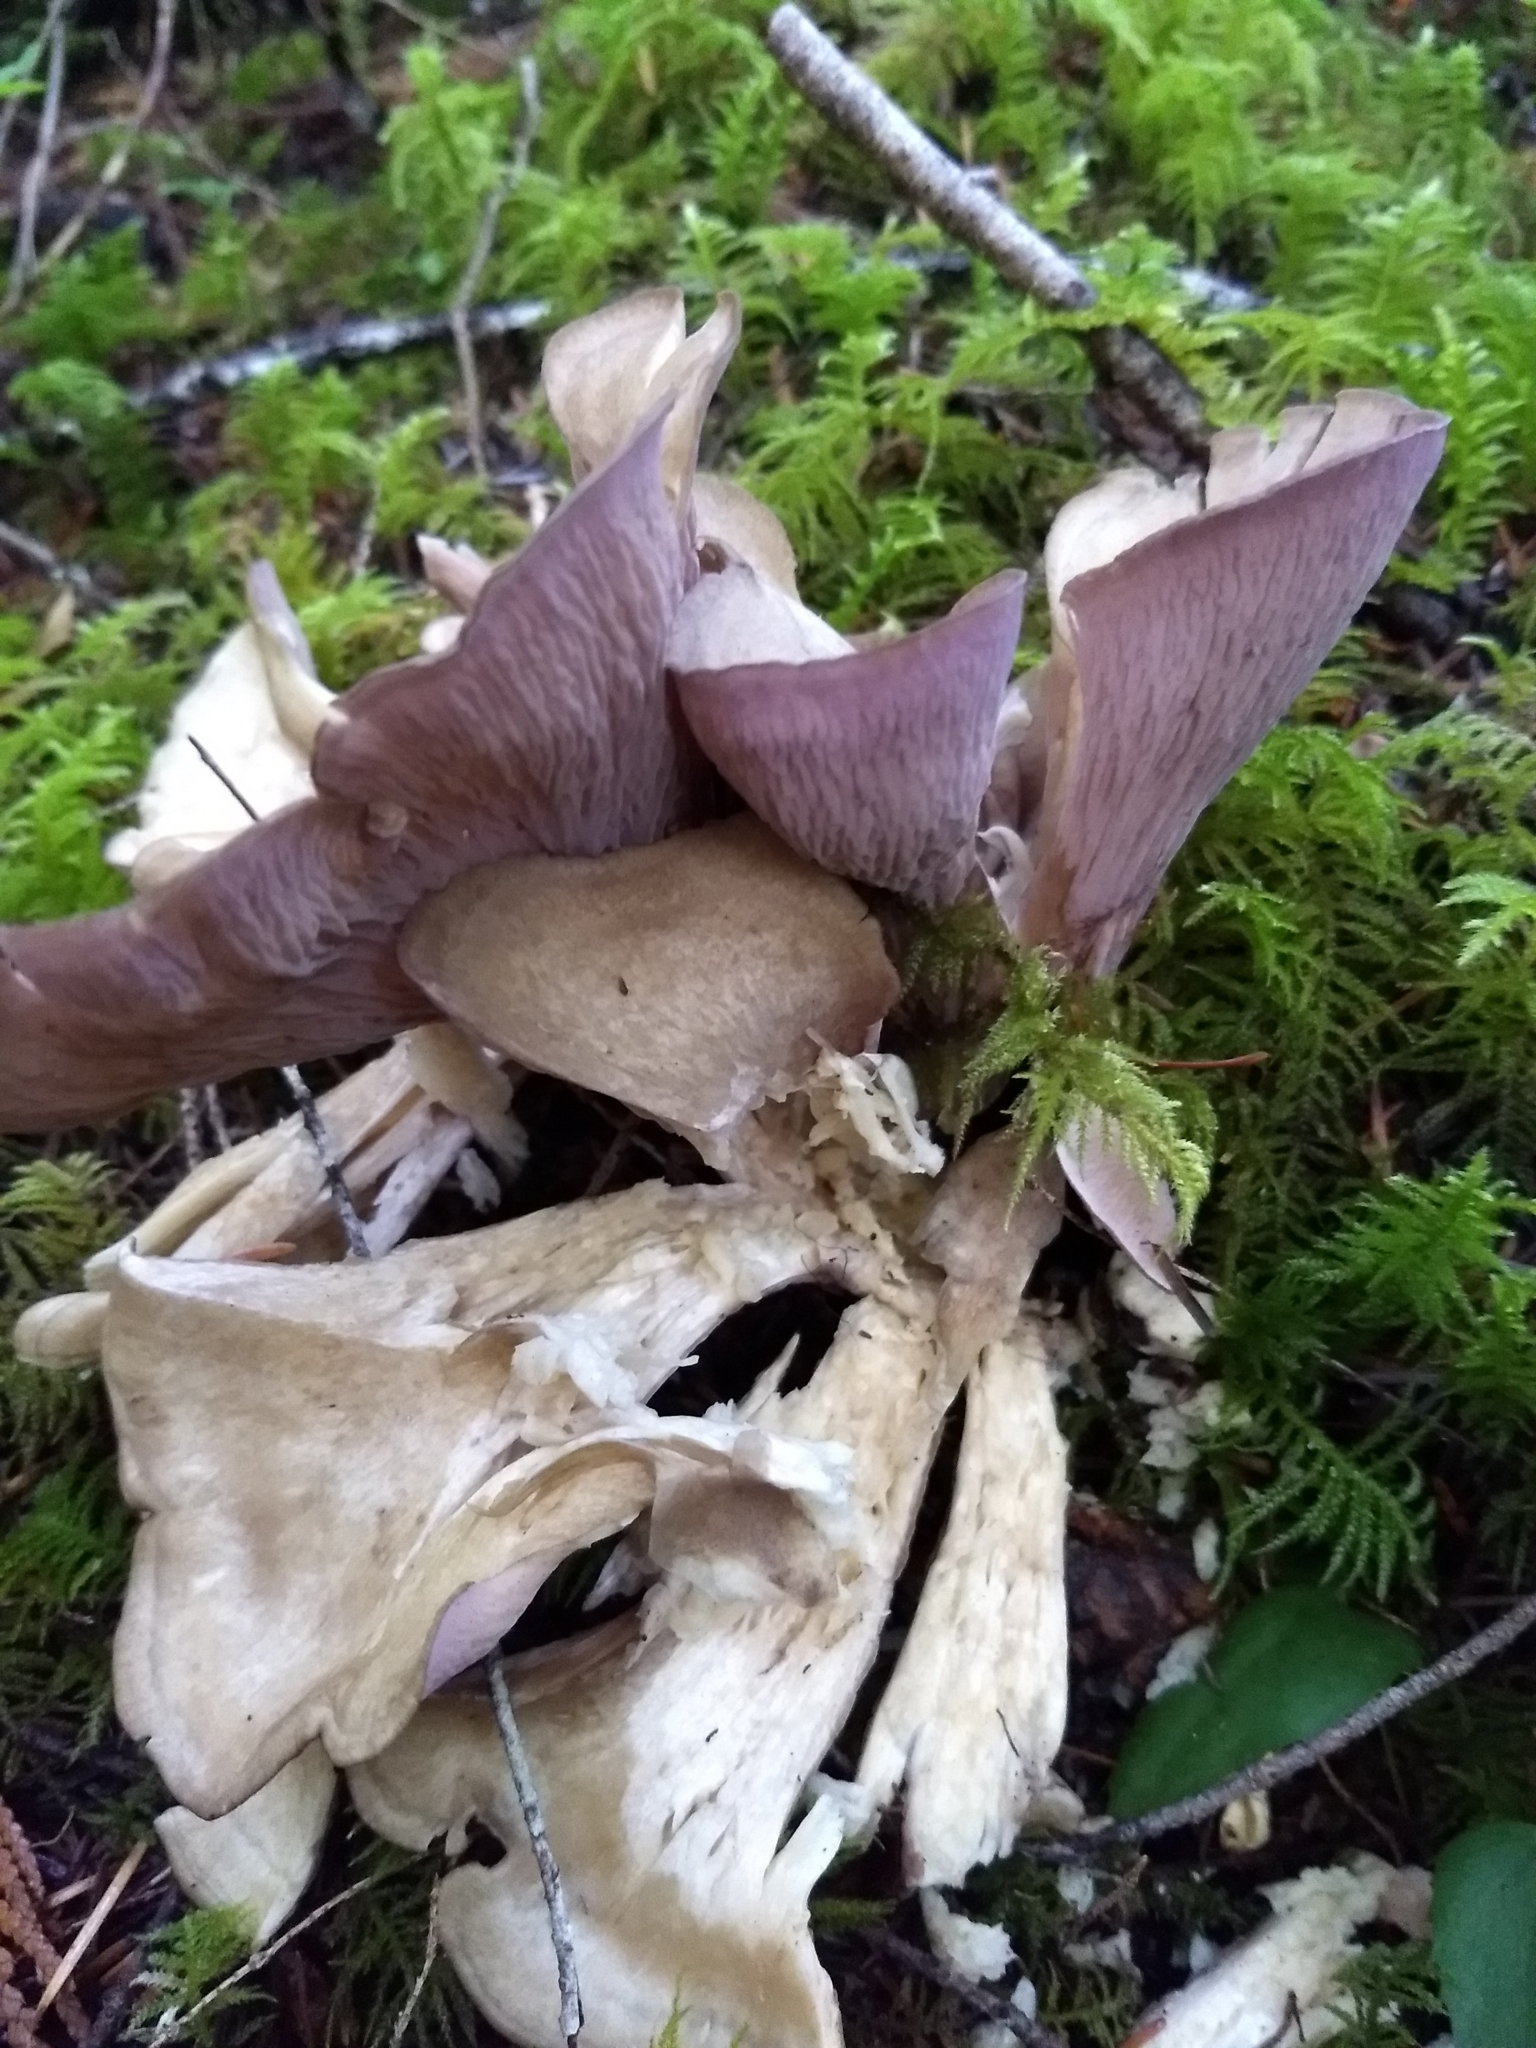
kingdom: Fungi
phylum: Basidiomycota
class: Agaricomycetes
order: Gomphales
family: Gomphaceae
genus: Gomphus
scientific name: Gomphus clavatus
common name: Pig's ear
